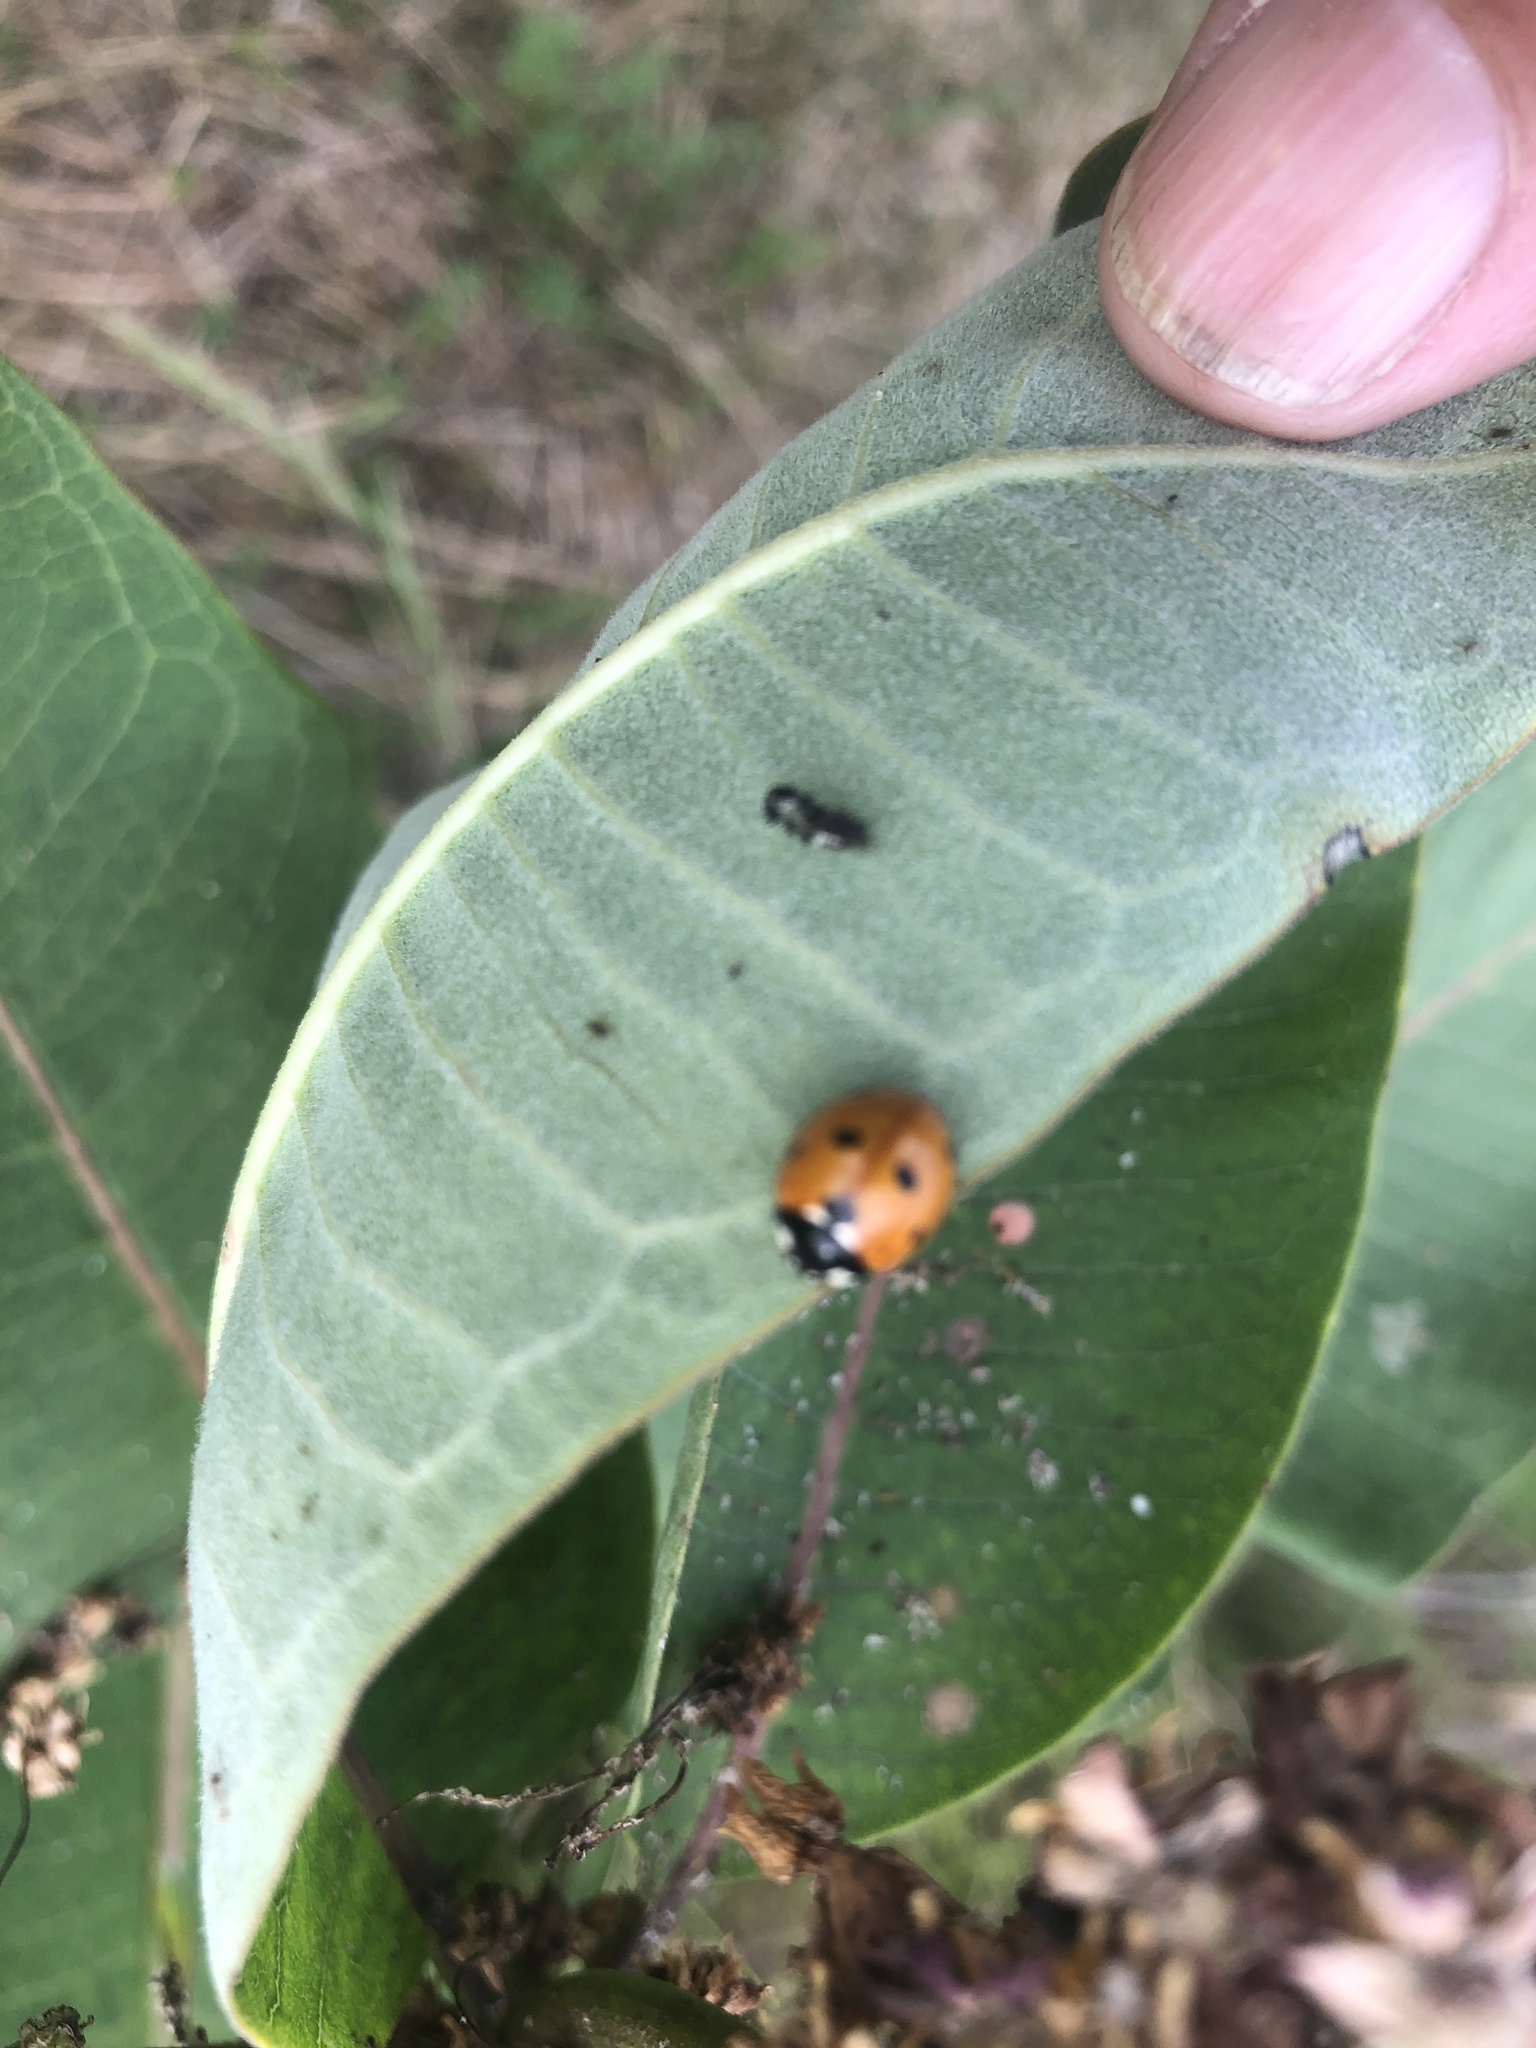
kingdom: Animalia
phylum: Arthropoda
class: Insecta
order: Coleoptera
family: Coccinellidae
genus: Coccinella
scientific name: Coccinella septempunctata
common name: Sevenspotted lady beetle
